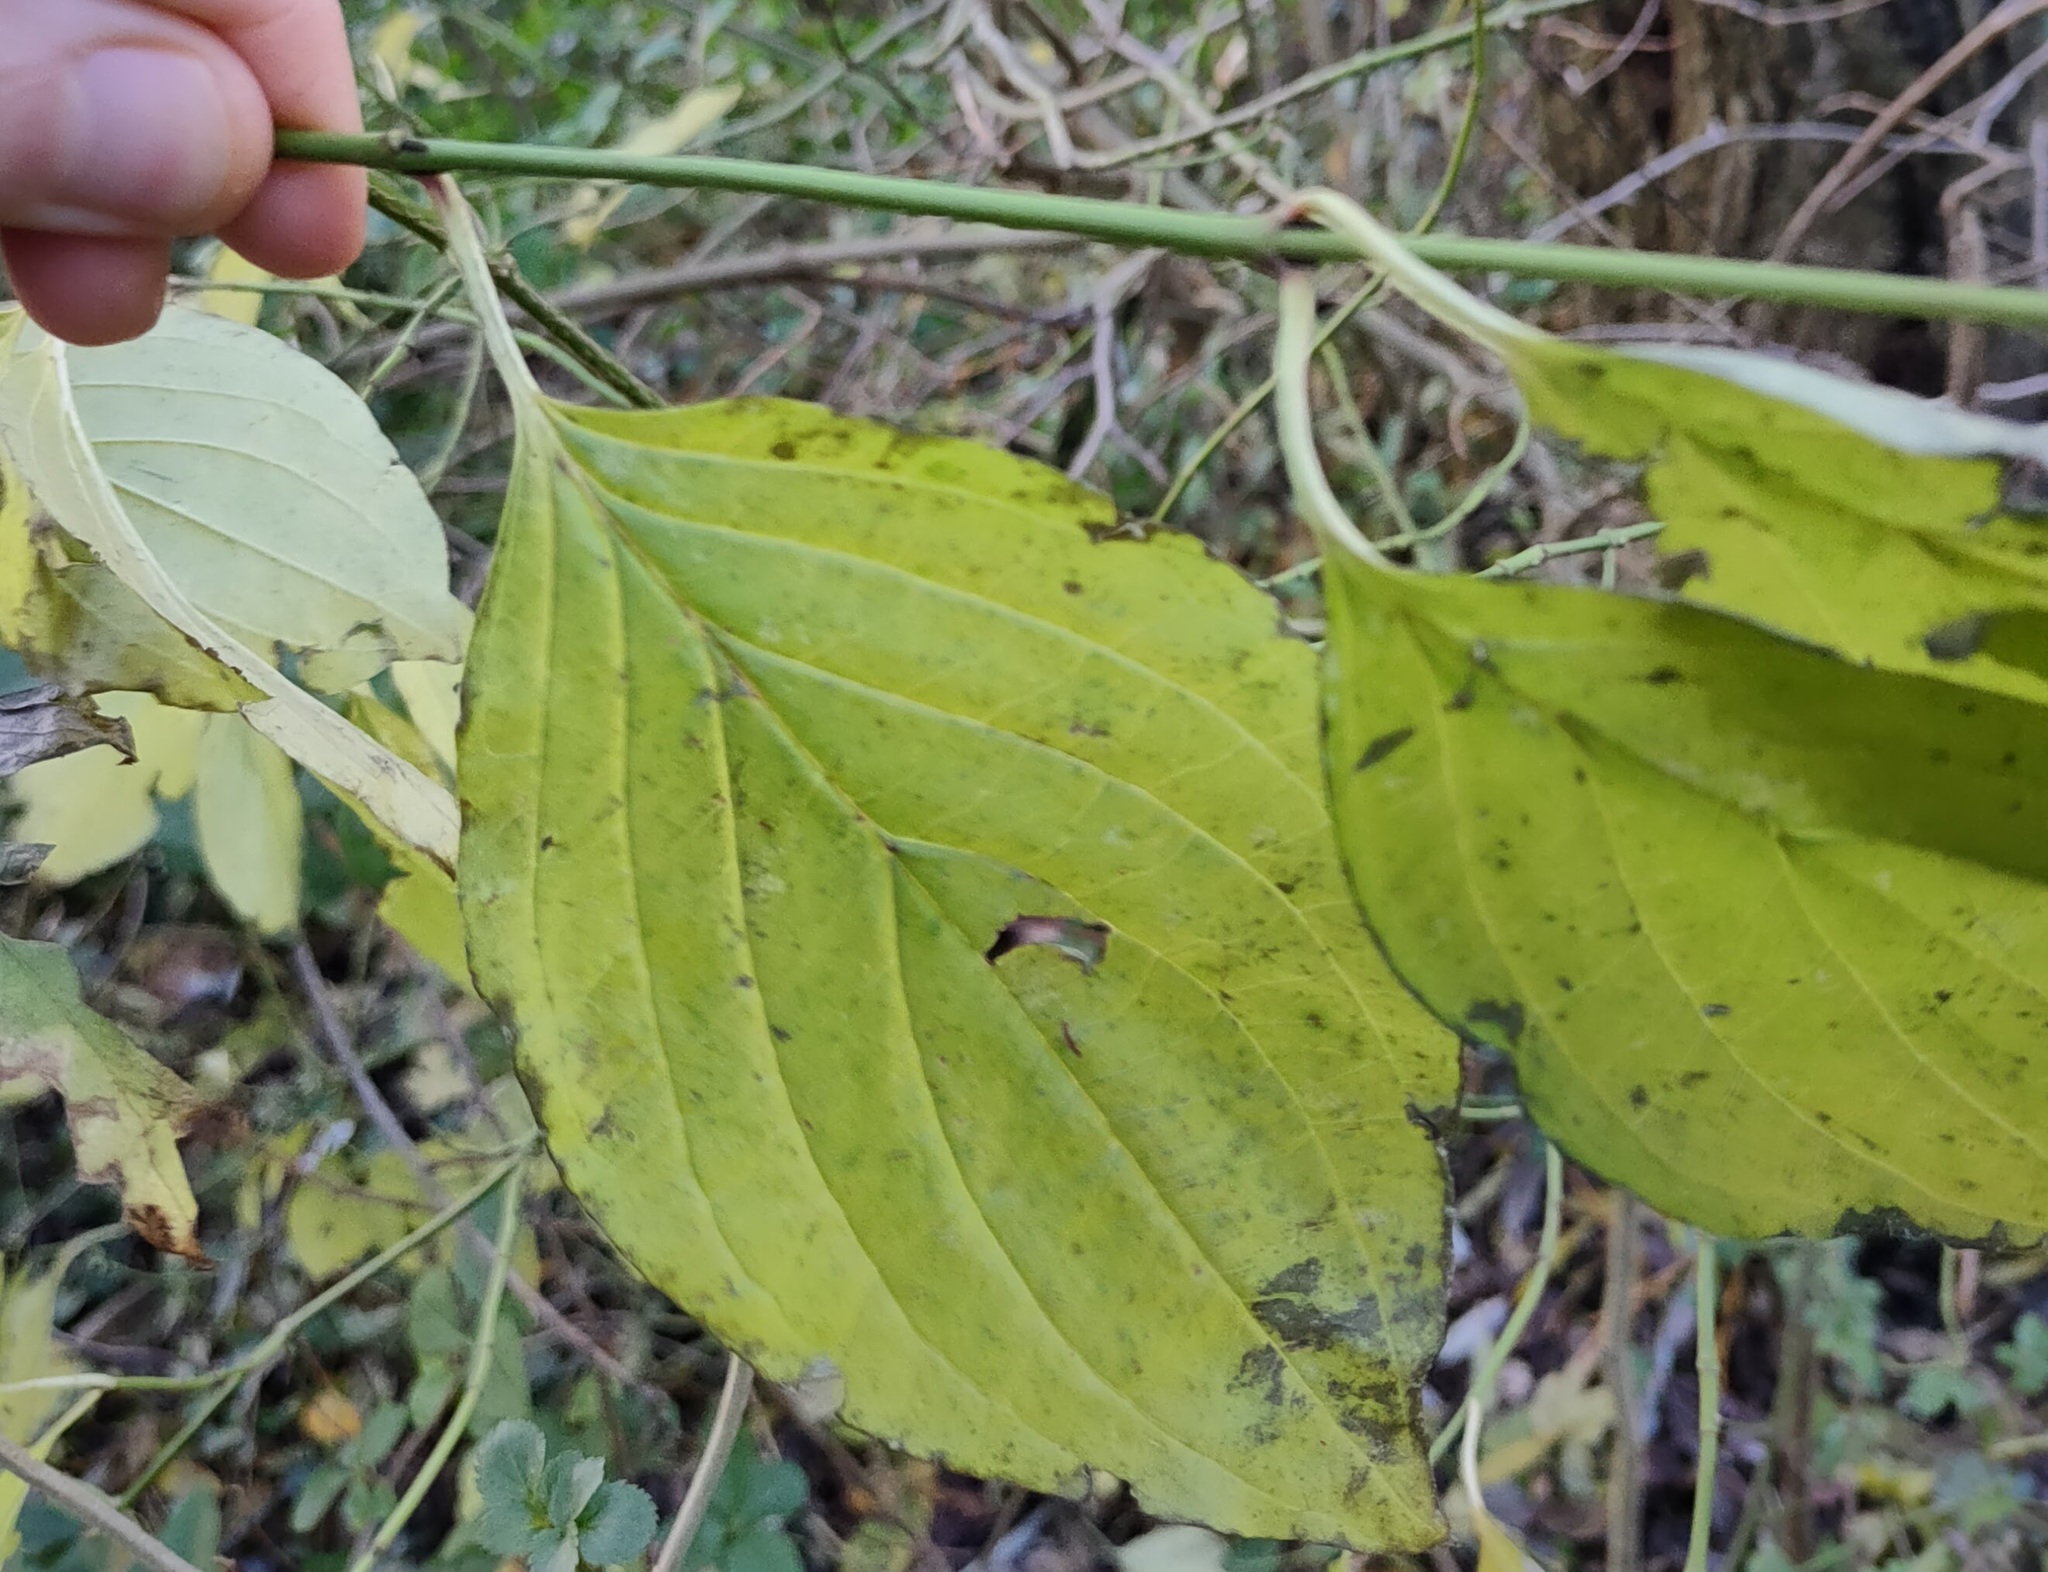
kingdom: Plantae
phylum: Tracheophyta
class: Magnoliopsida
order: Cornales
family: Cornaceae
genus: Cornus
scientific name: Cornus sanguinea
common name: Dogwood
